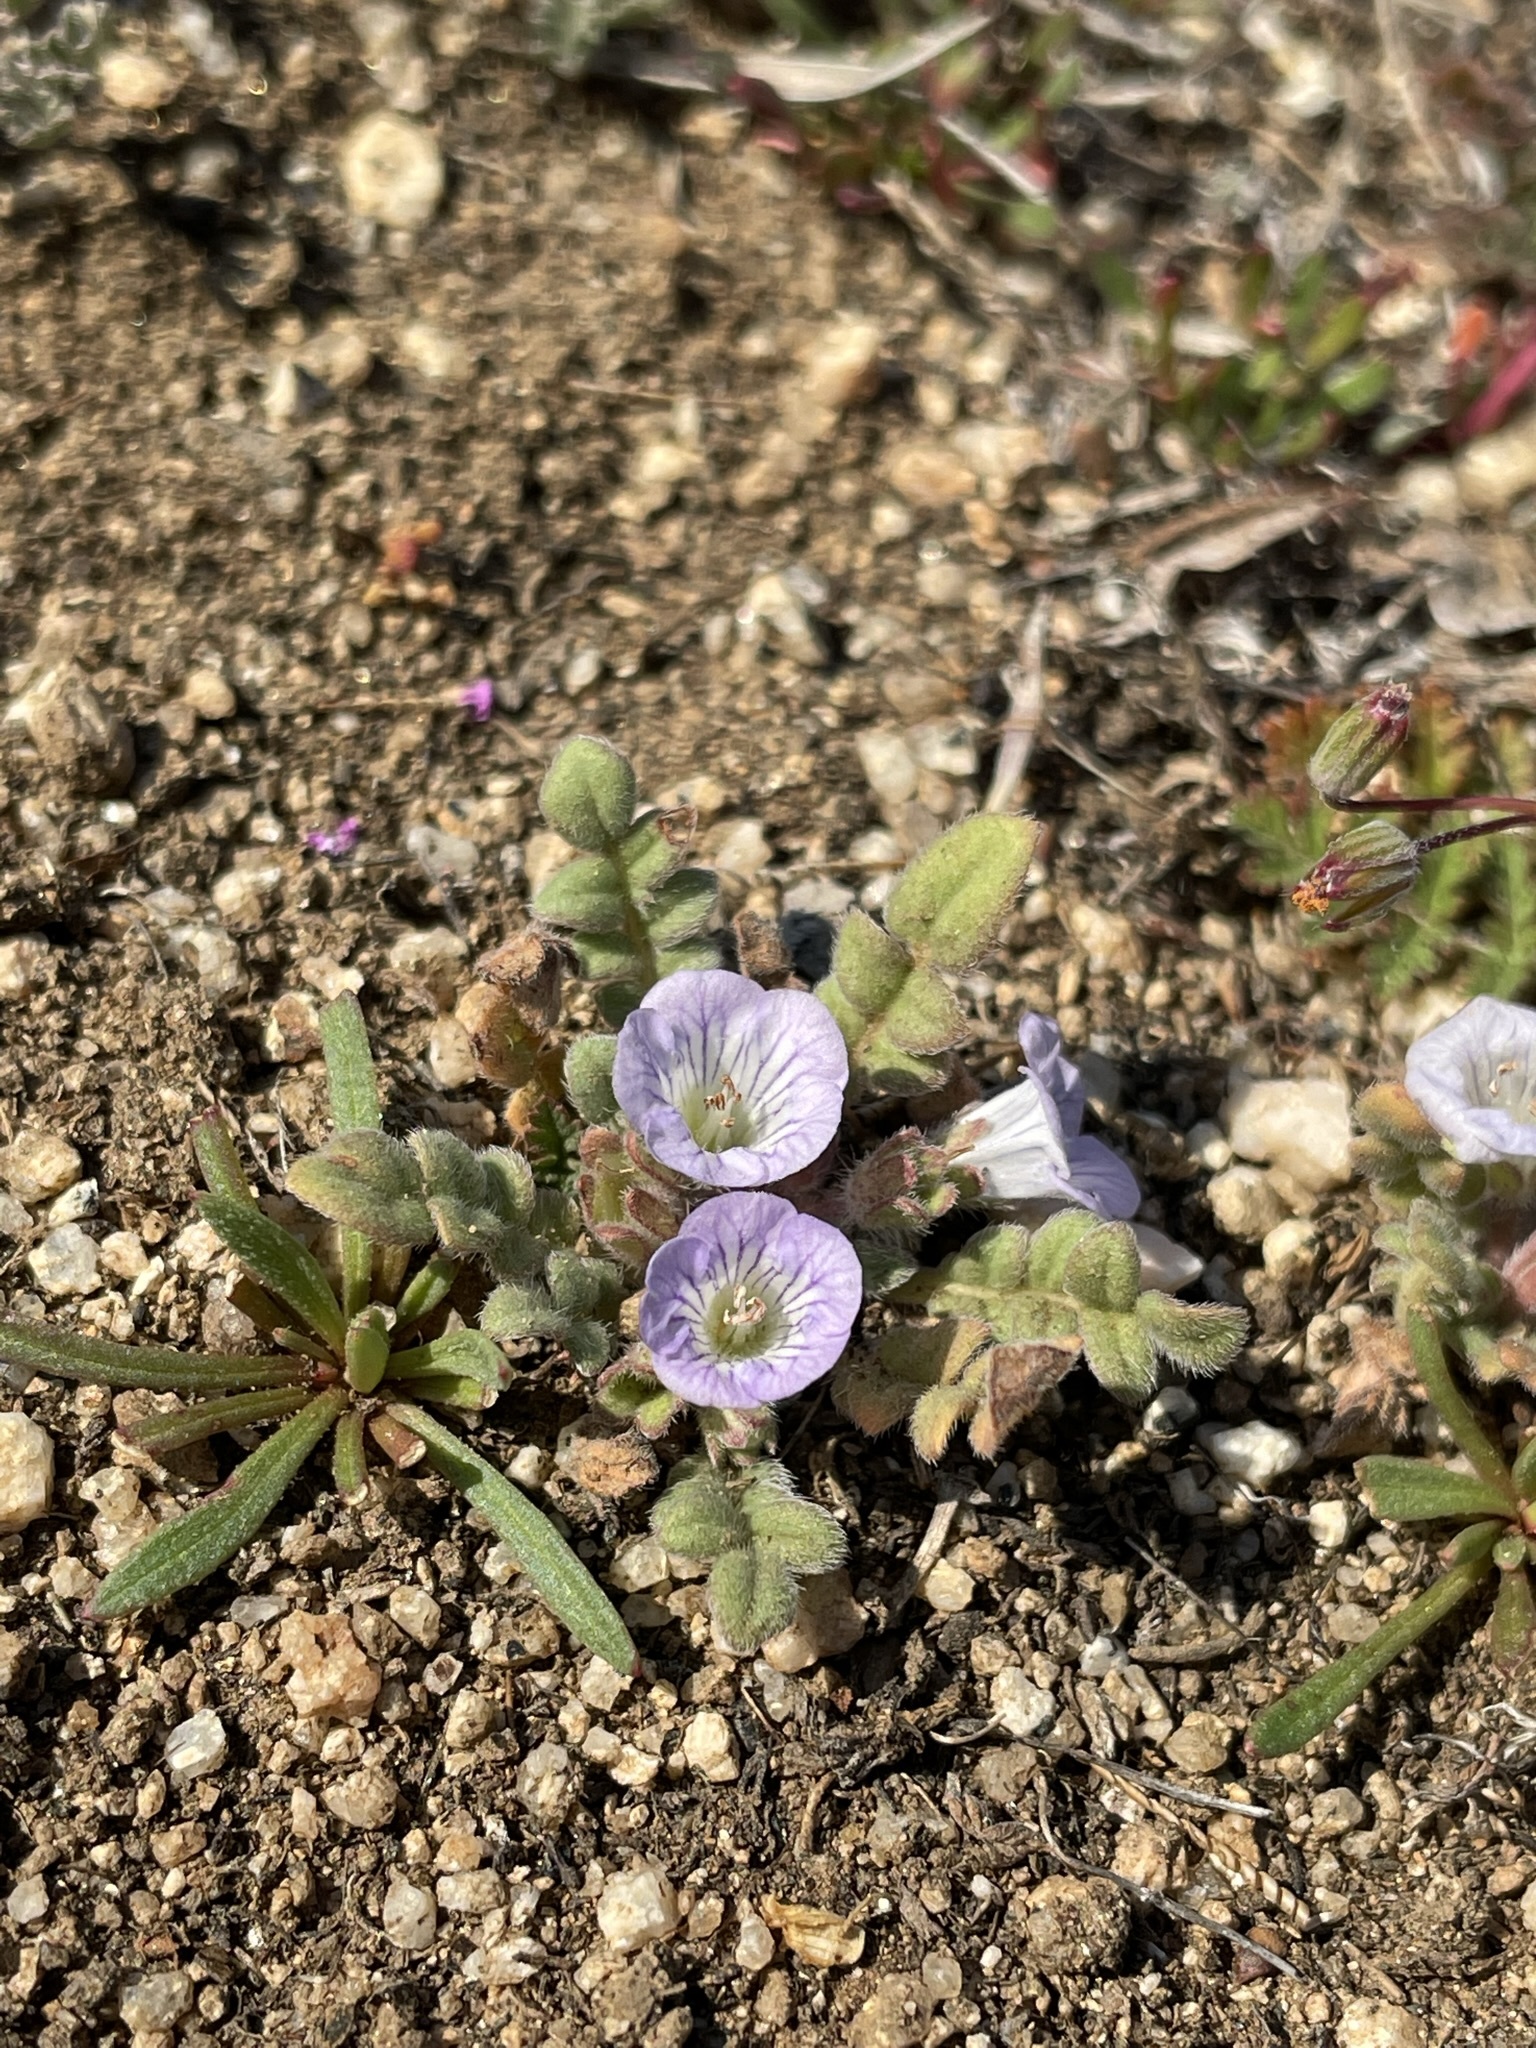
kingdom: Plantae
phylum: Tracheophyta
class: Magnoliopsida
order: Boraginales
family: Hydrophyllaceae
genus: Phacelia
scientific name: Phacelia douglasii
